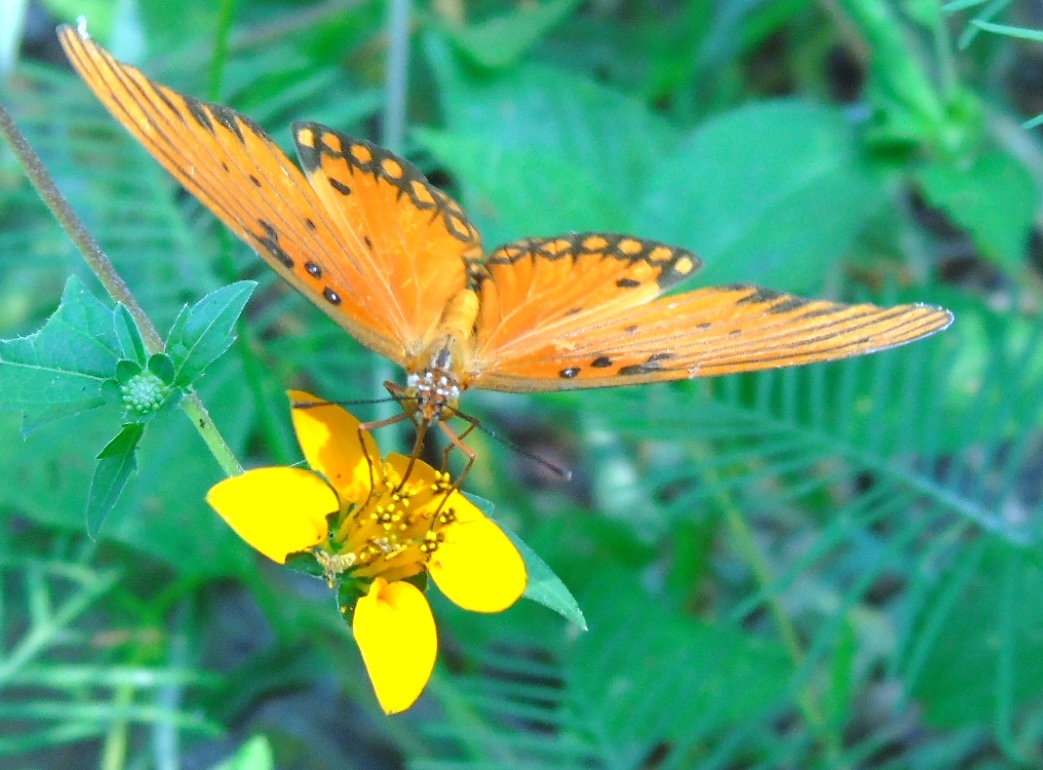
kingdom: Animalia
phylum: Arthropoda
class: Insecta
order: Lepidoptera
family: Nymphalidae
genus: Dione
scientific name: Dione vanillae
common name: Gulf fritillary
